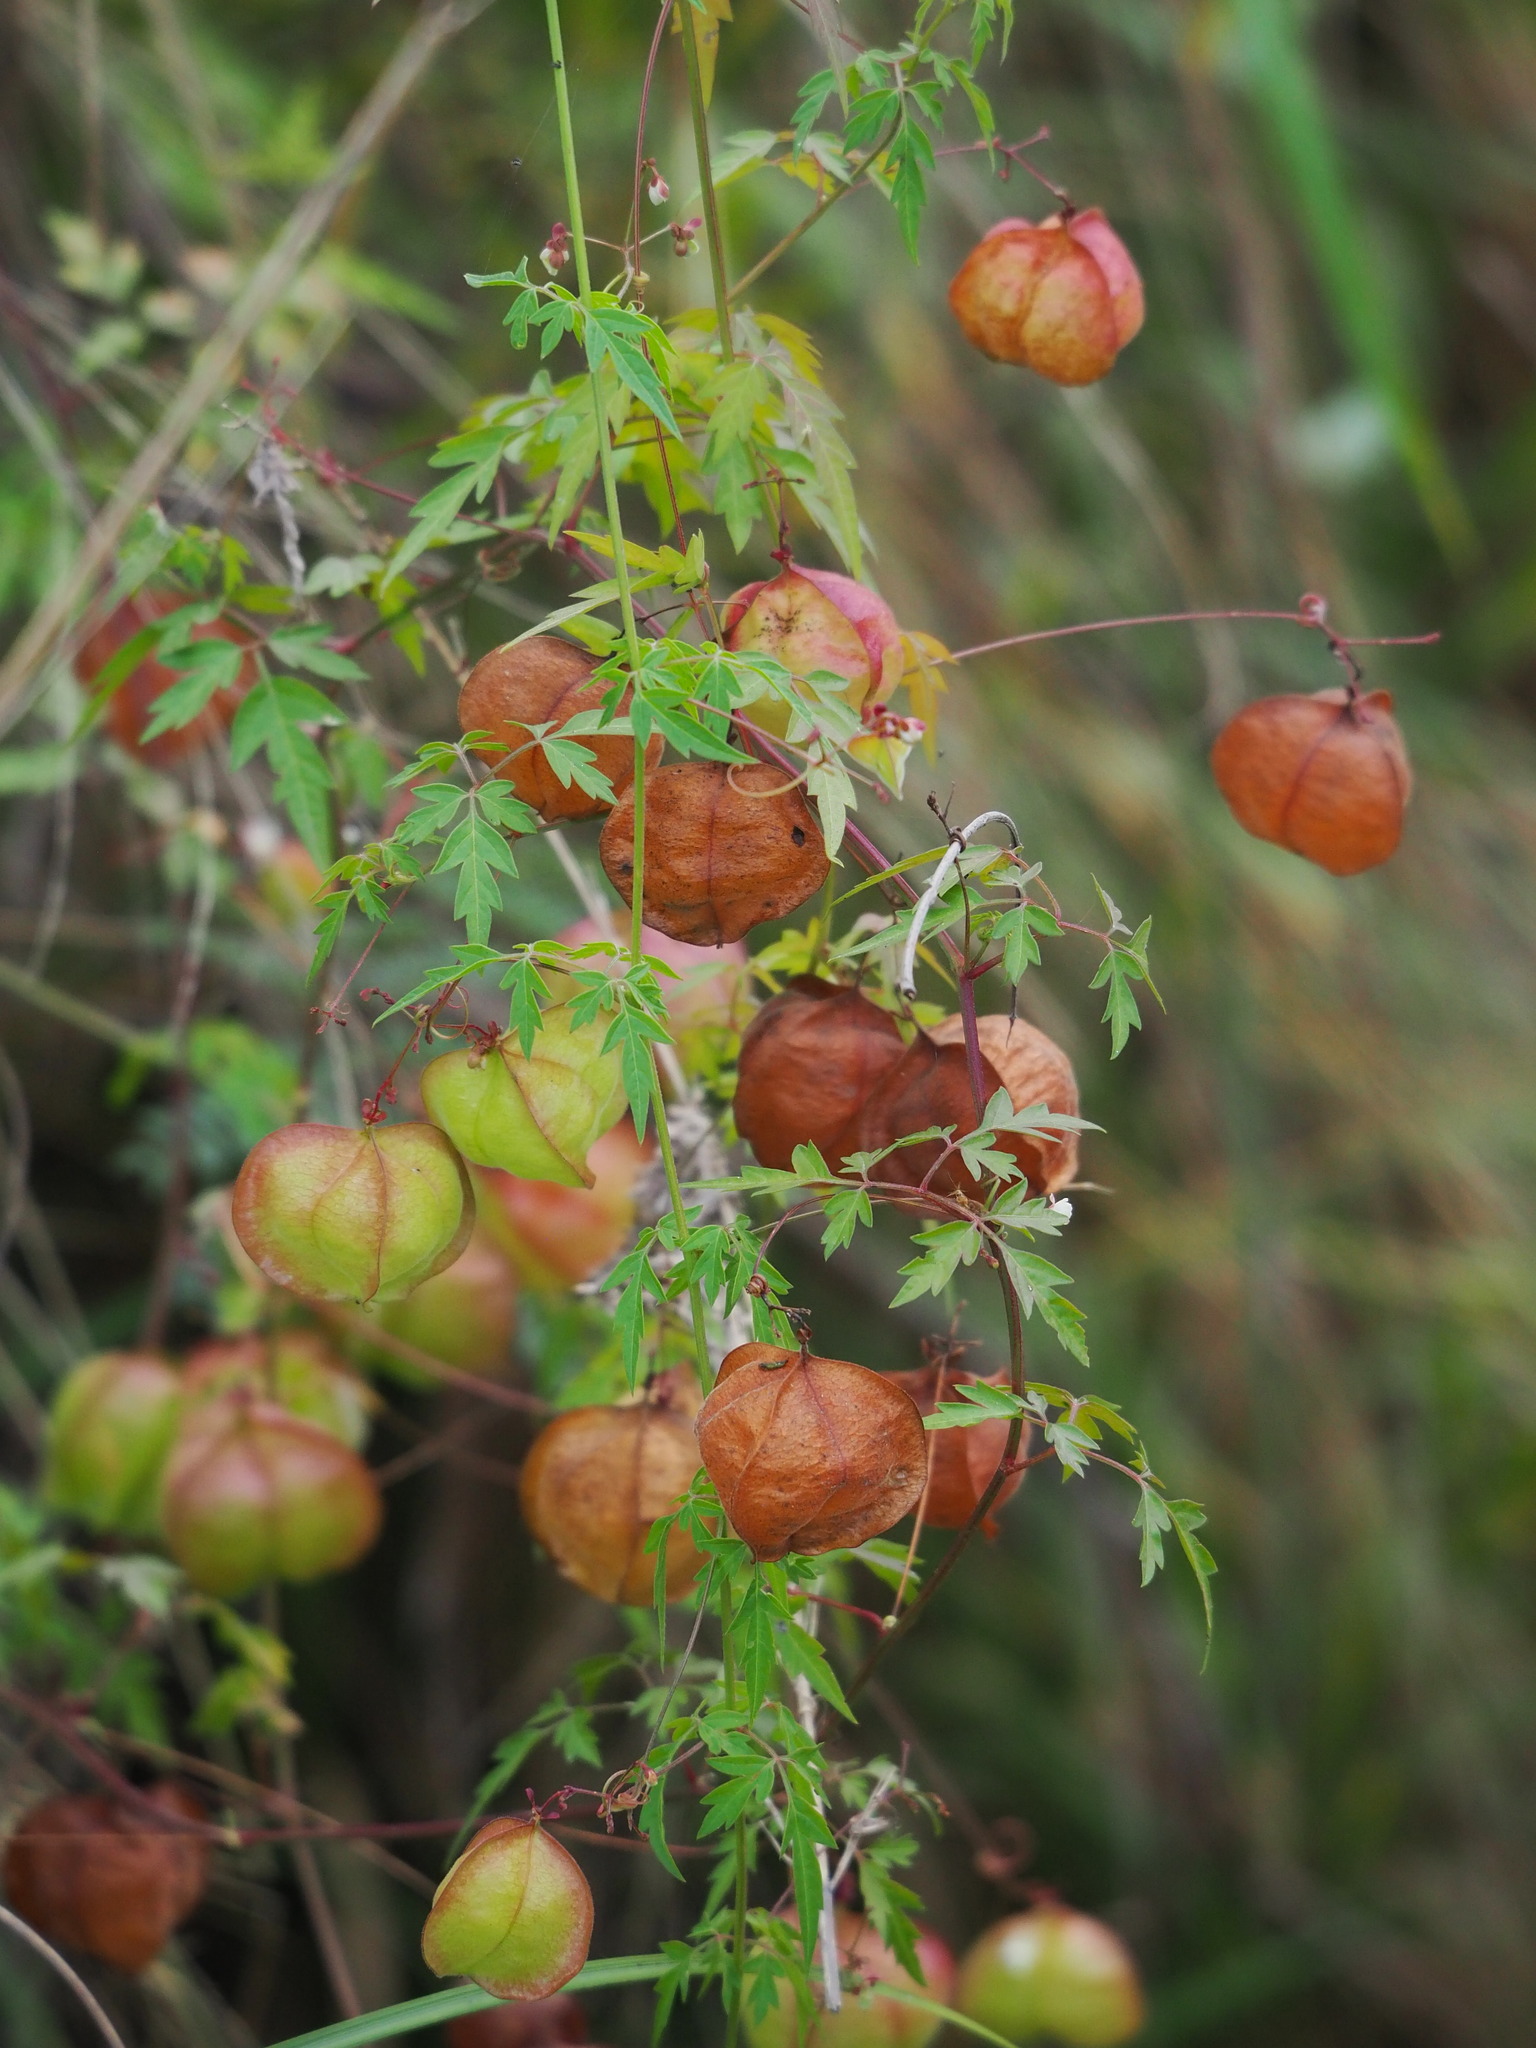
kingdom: Plantae
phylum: Tracheophyta
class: Magnoliopsida
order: Sapindales
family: Sapindaceae
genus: Cardiospermum
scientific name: Cardiospermum halicacabum
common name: Balloon vine
